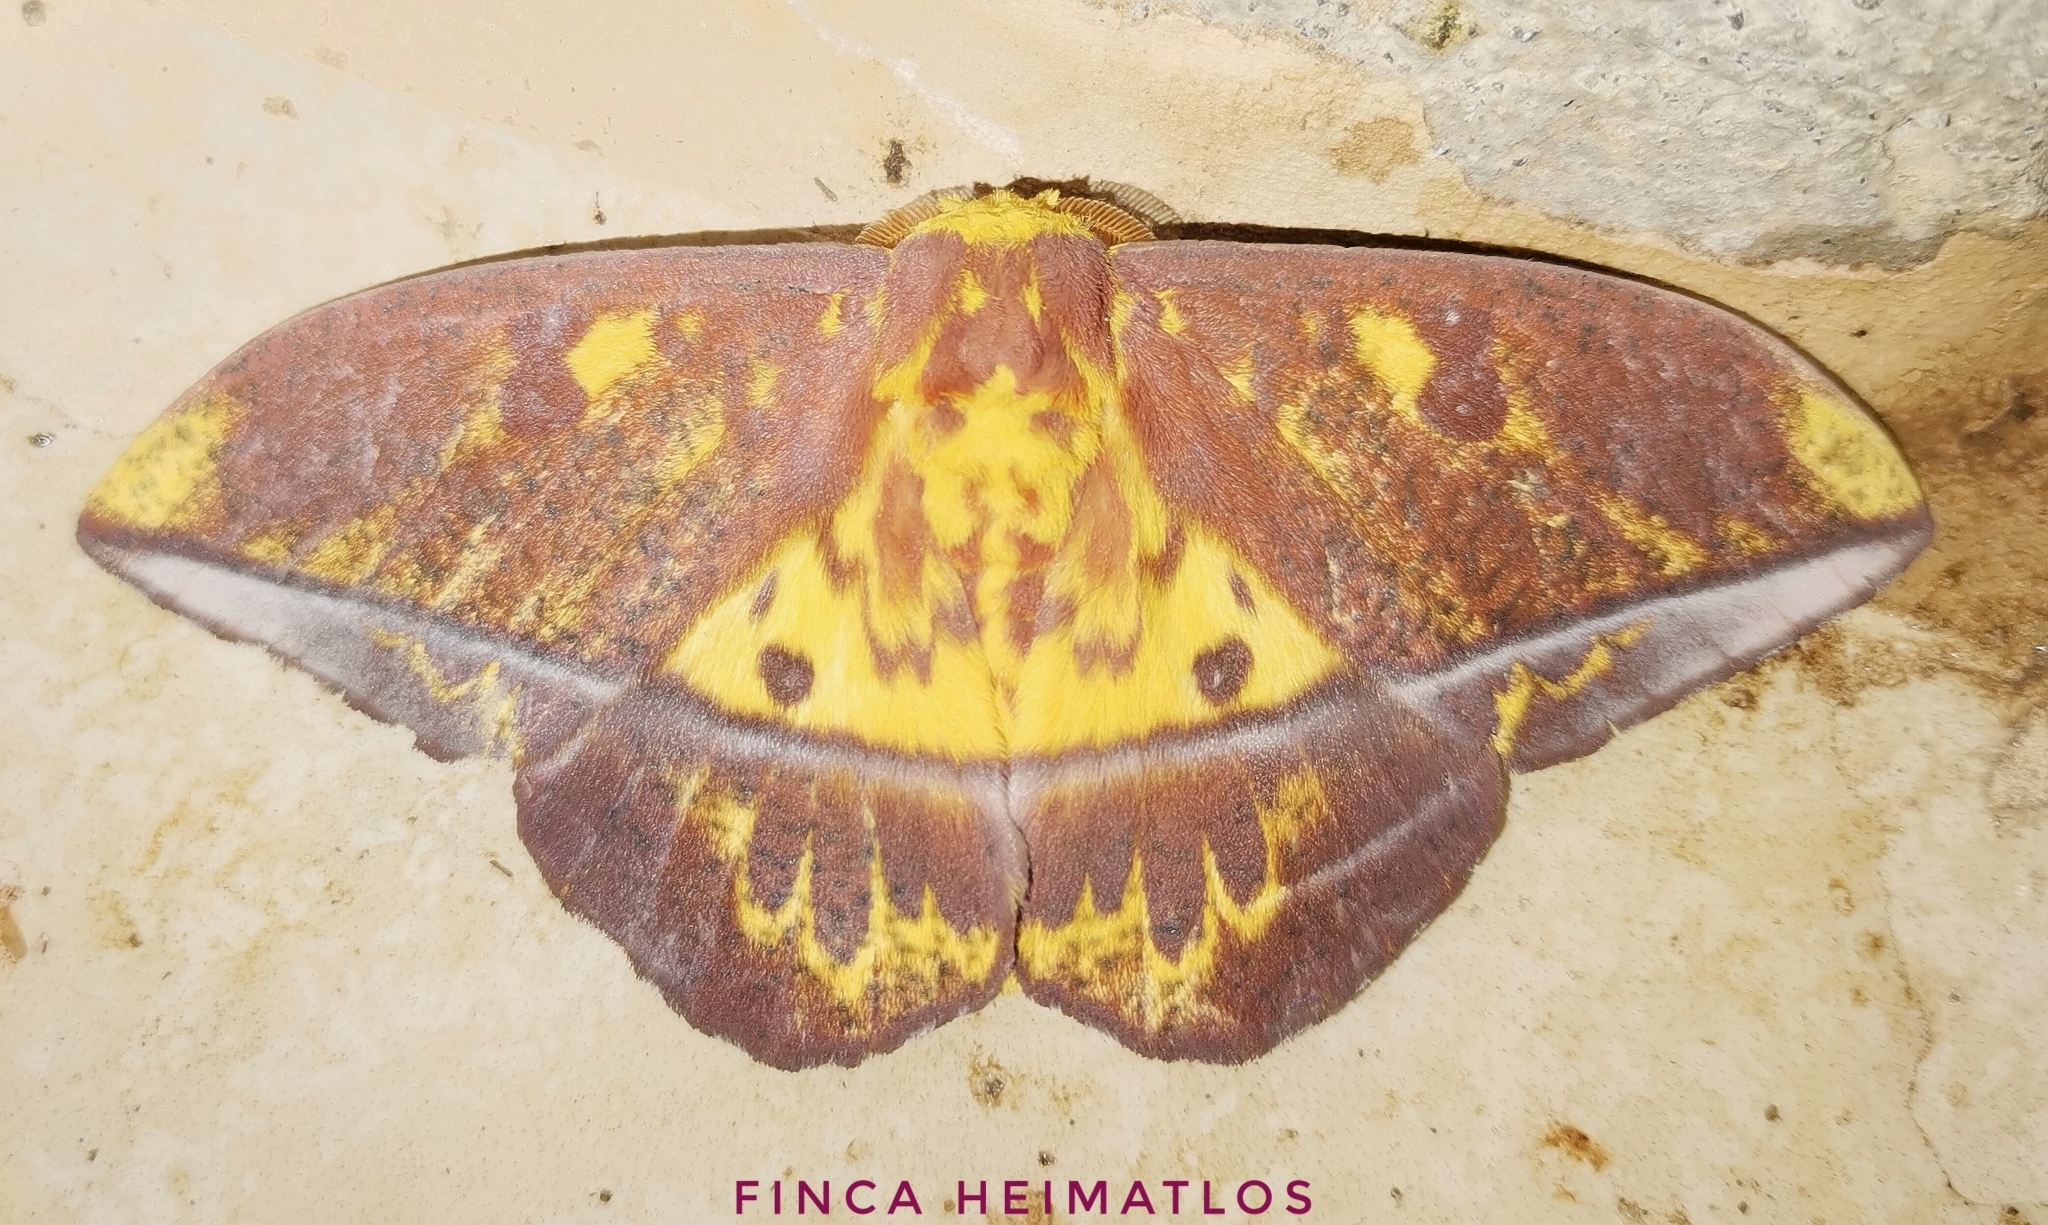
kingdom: Animalia
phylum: Arthropoda
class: Insecta
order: Lepidoptera
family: Saturniidae
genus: Eacles
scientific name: Eacles adoxa
